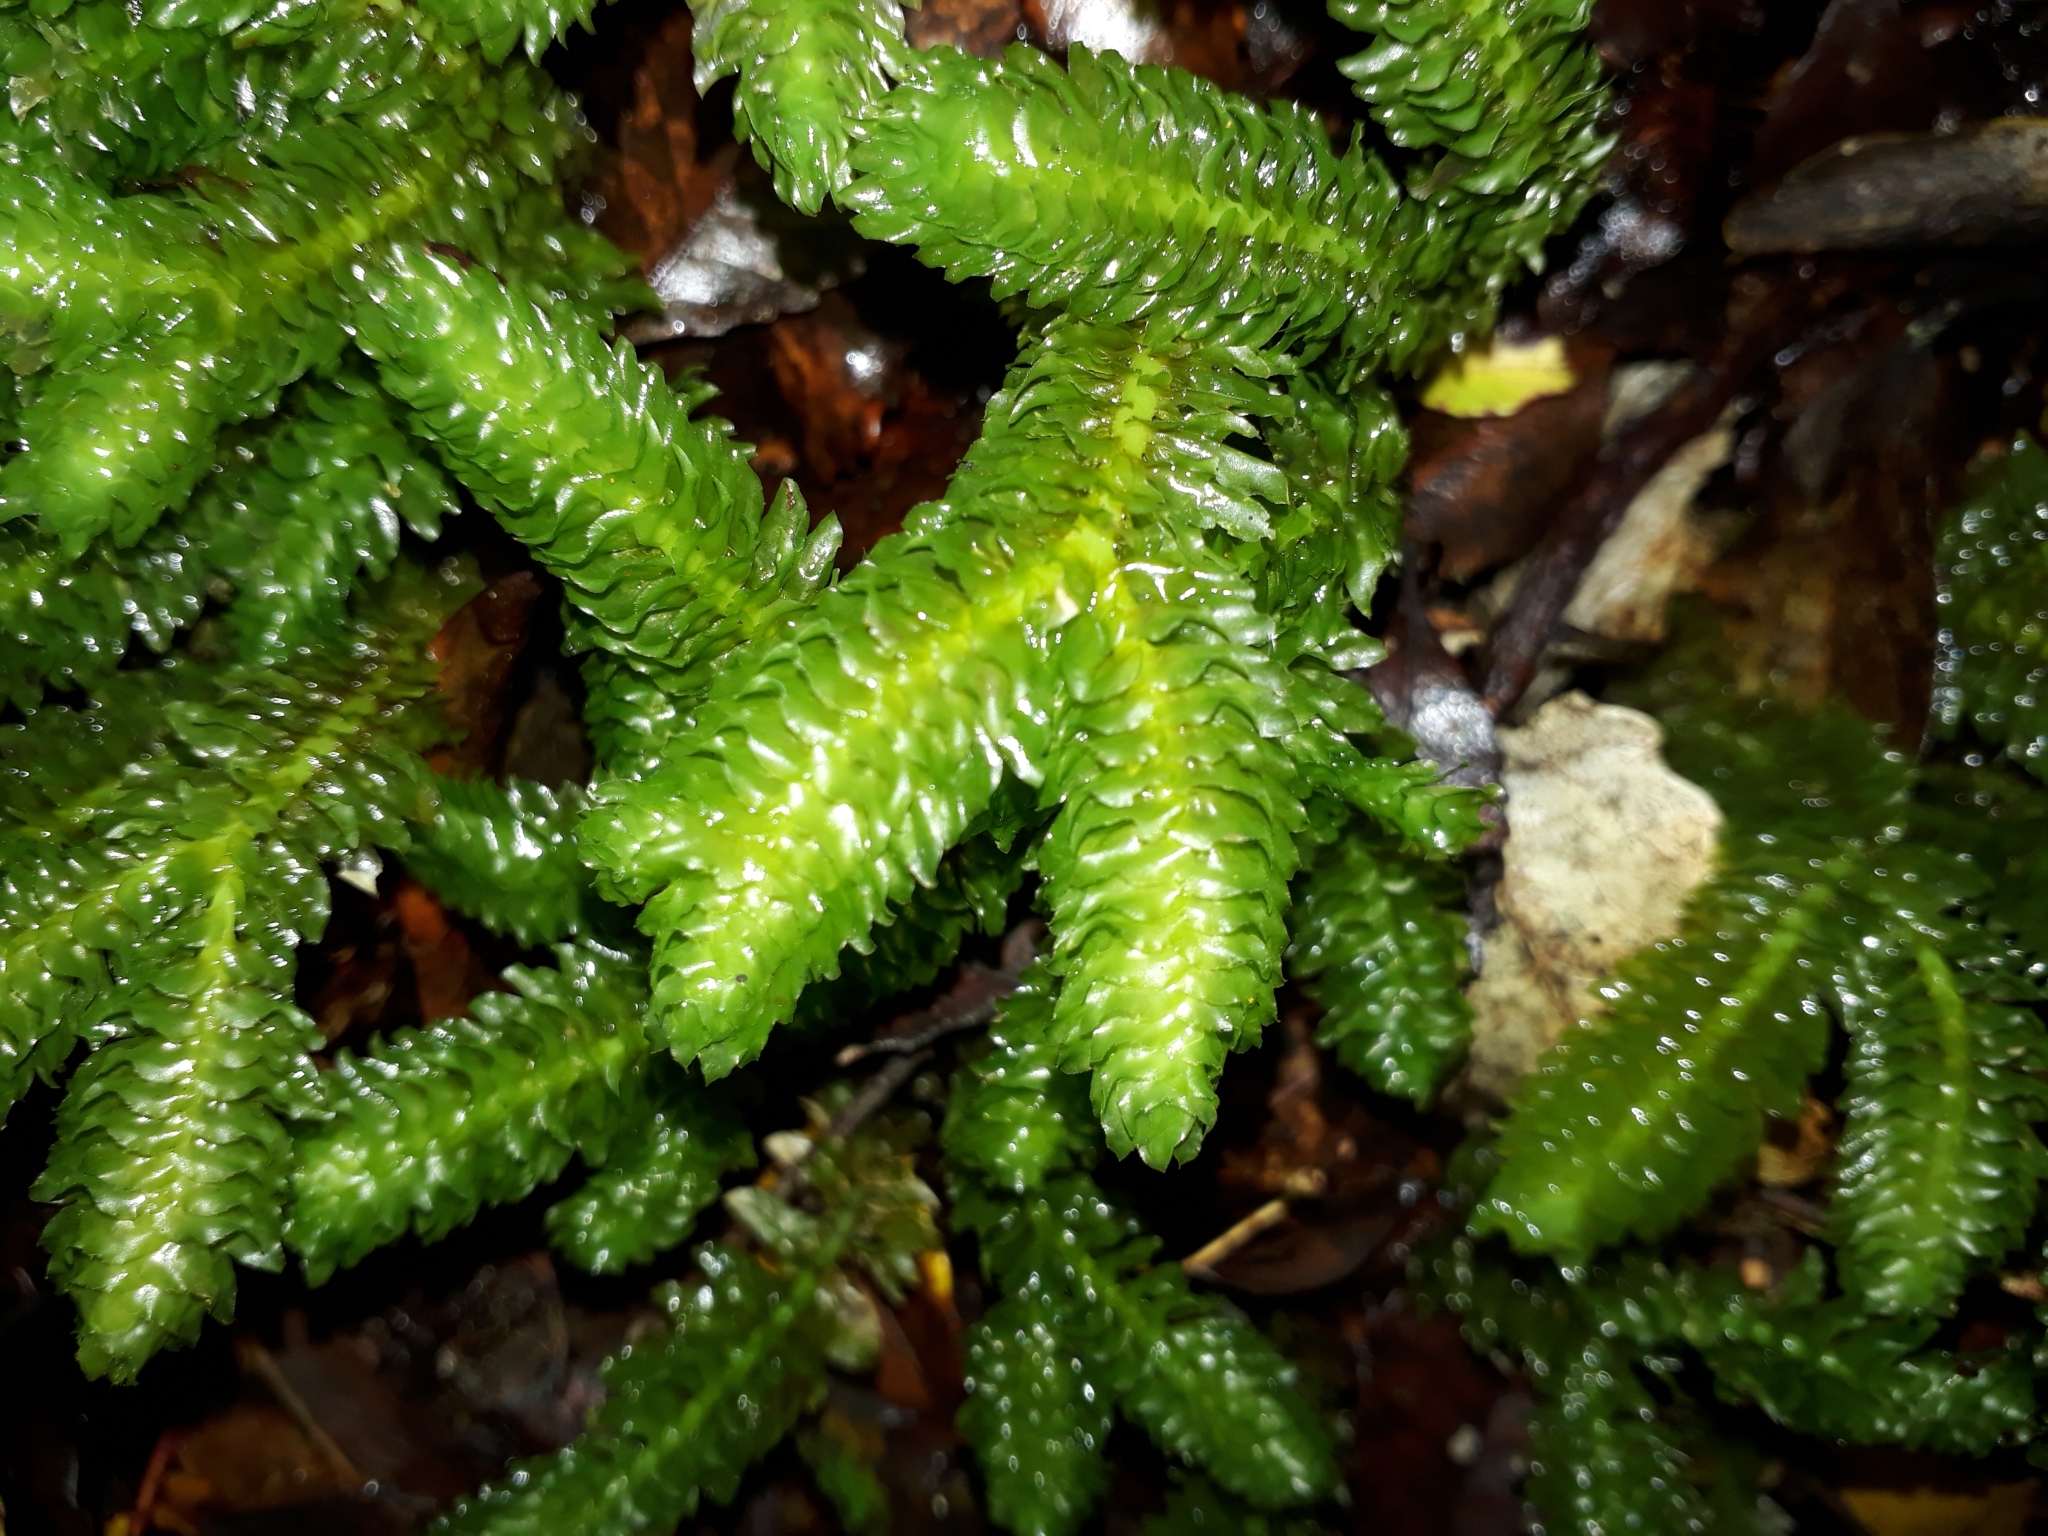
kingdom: Plantae
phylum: Marchantiophyta
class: Jungermanniopsida
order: Jungermanniales
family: Schistochilaceae
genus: Schistochila
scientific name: Schistochila nobilis
